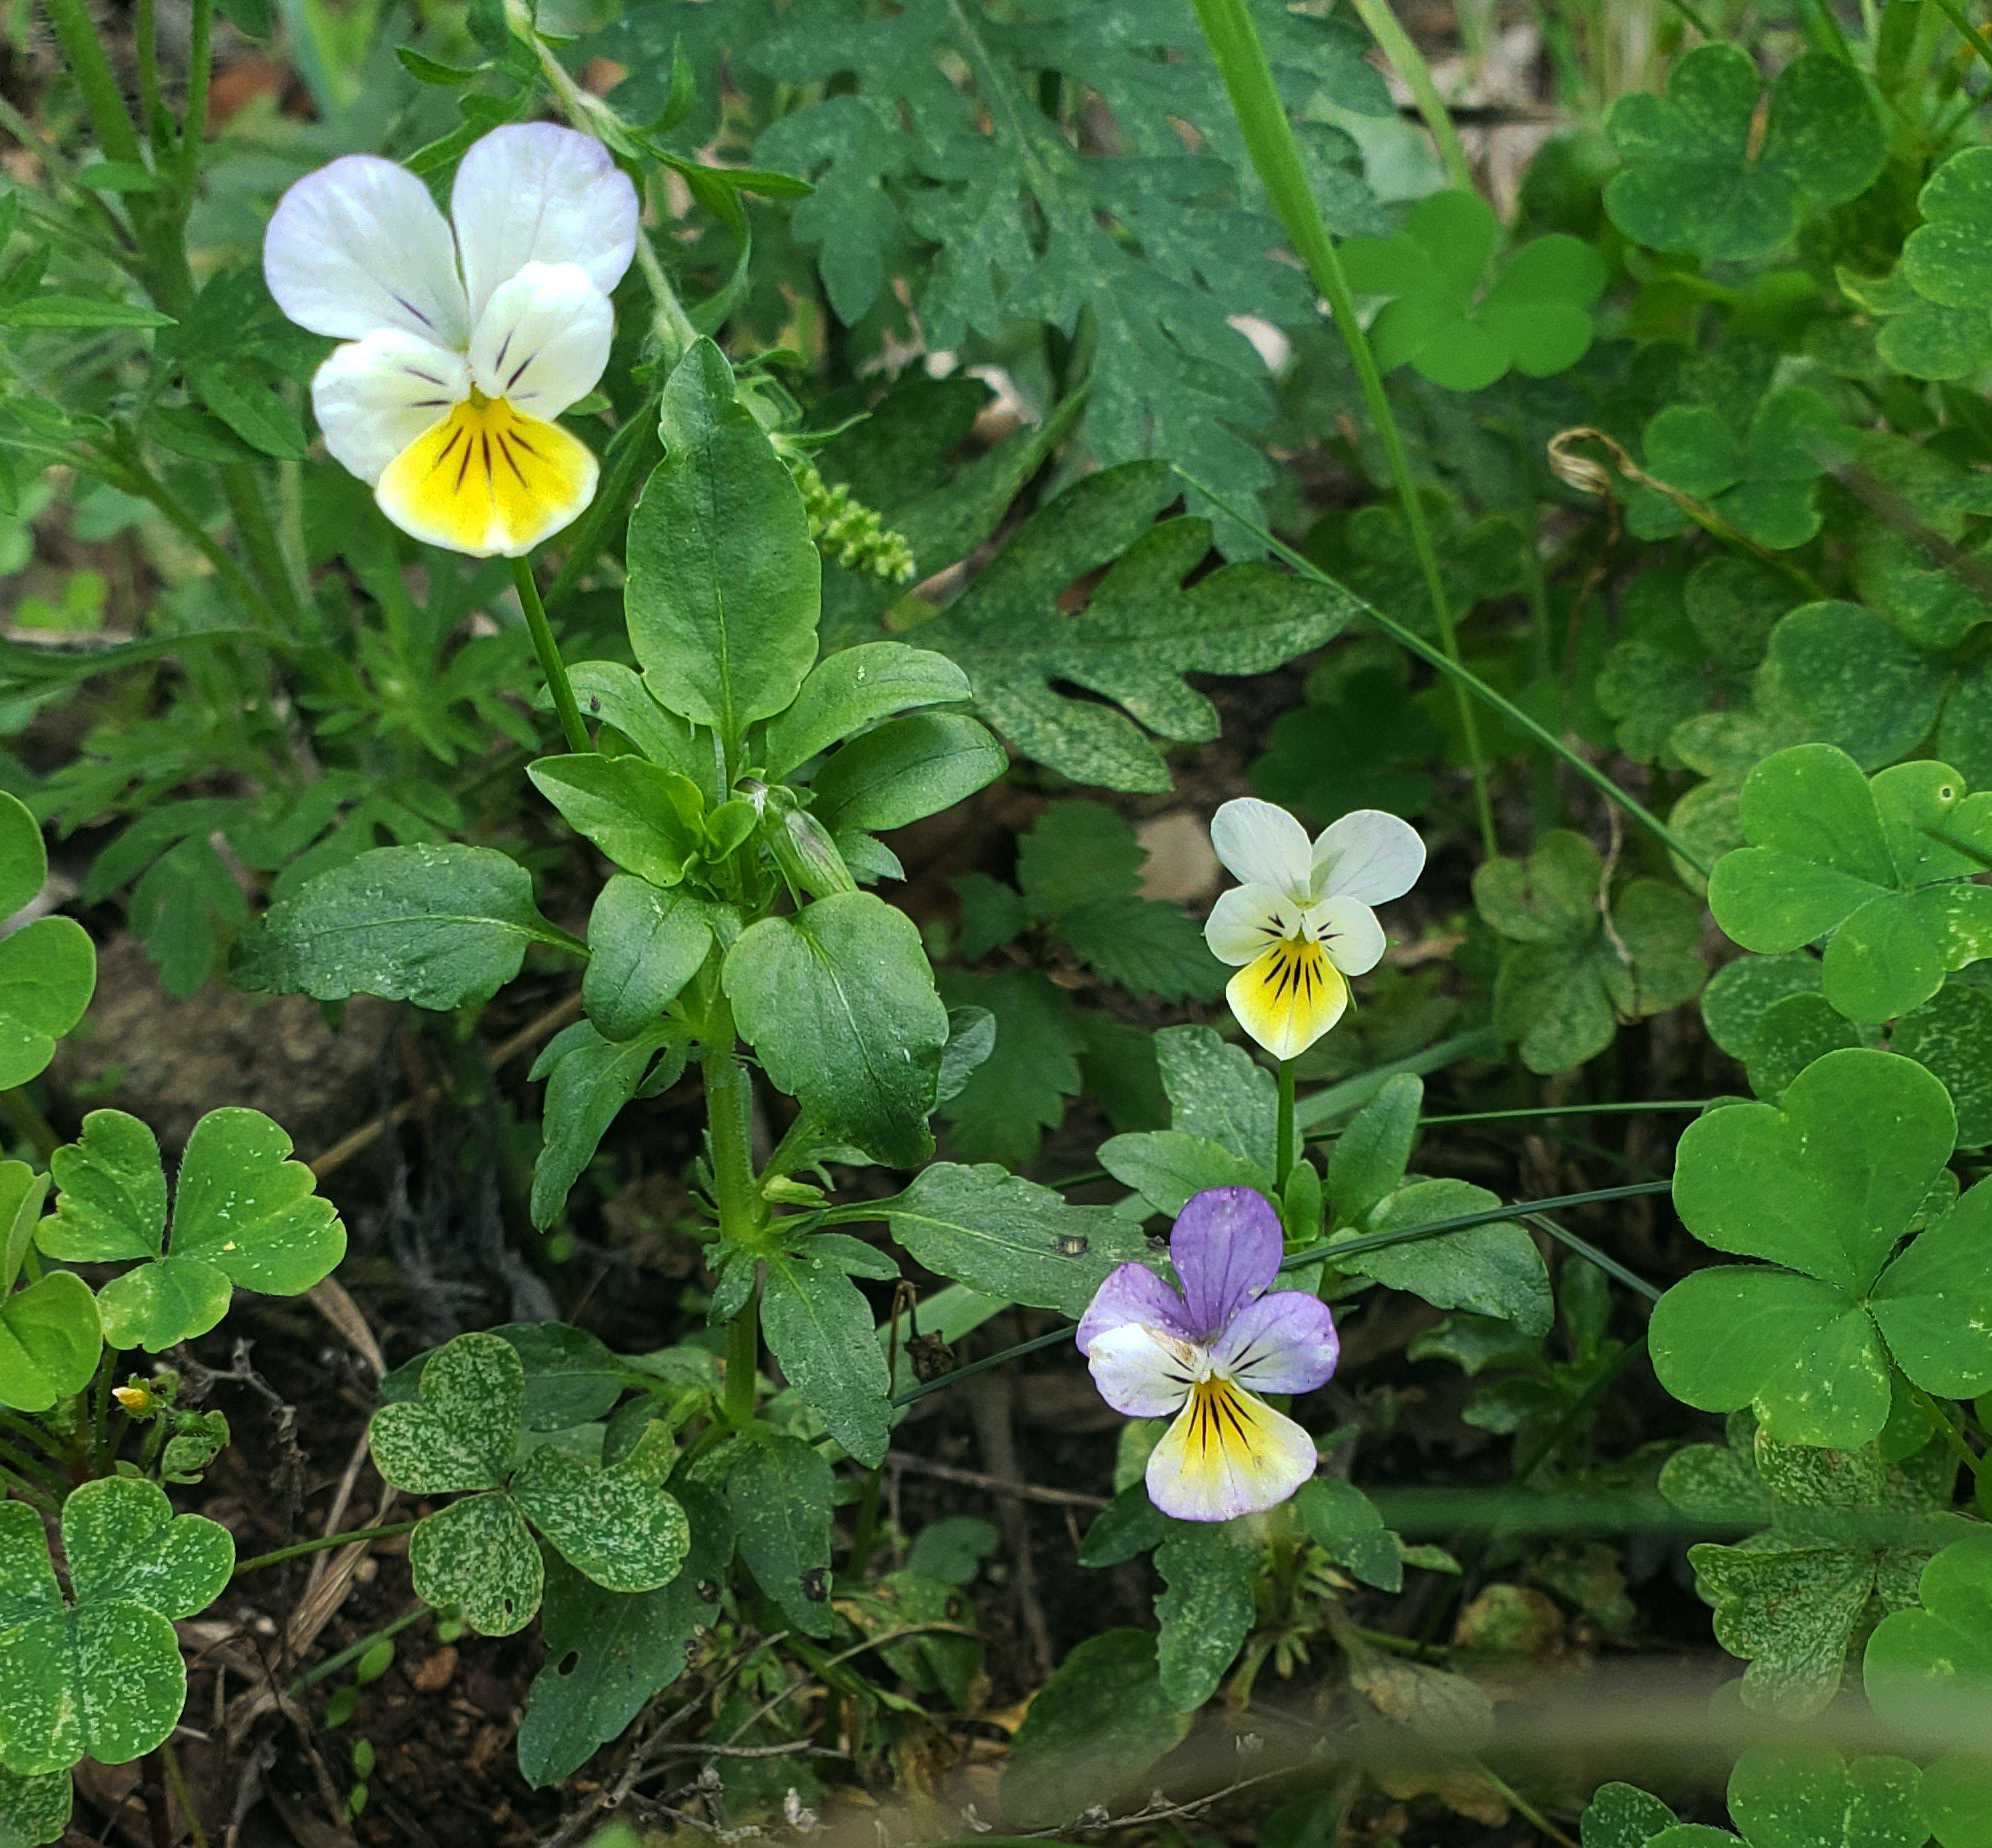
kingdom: Plantae
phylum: Tracheophyta
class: Magnoliopsida
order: Malpighiales
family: Violaceae
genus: Viola
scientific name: Viola tricolor
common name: Pansy
